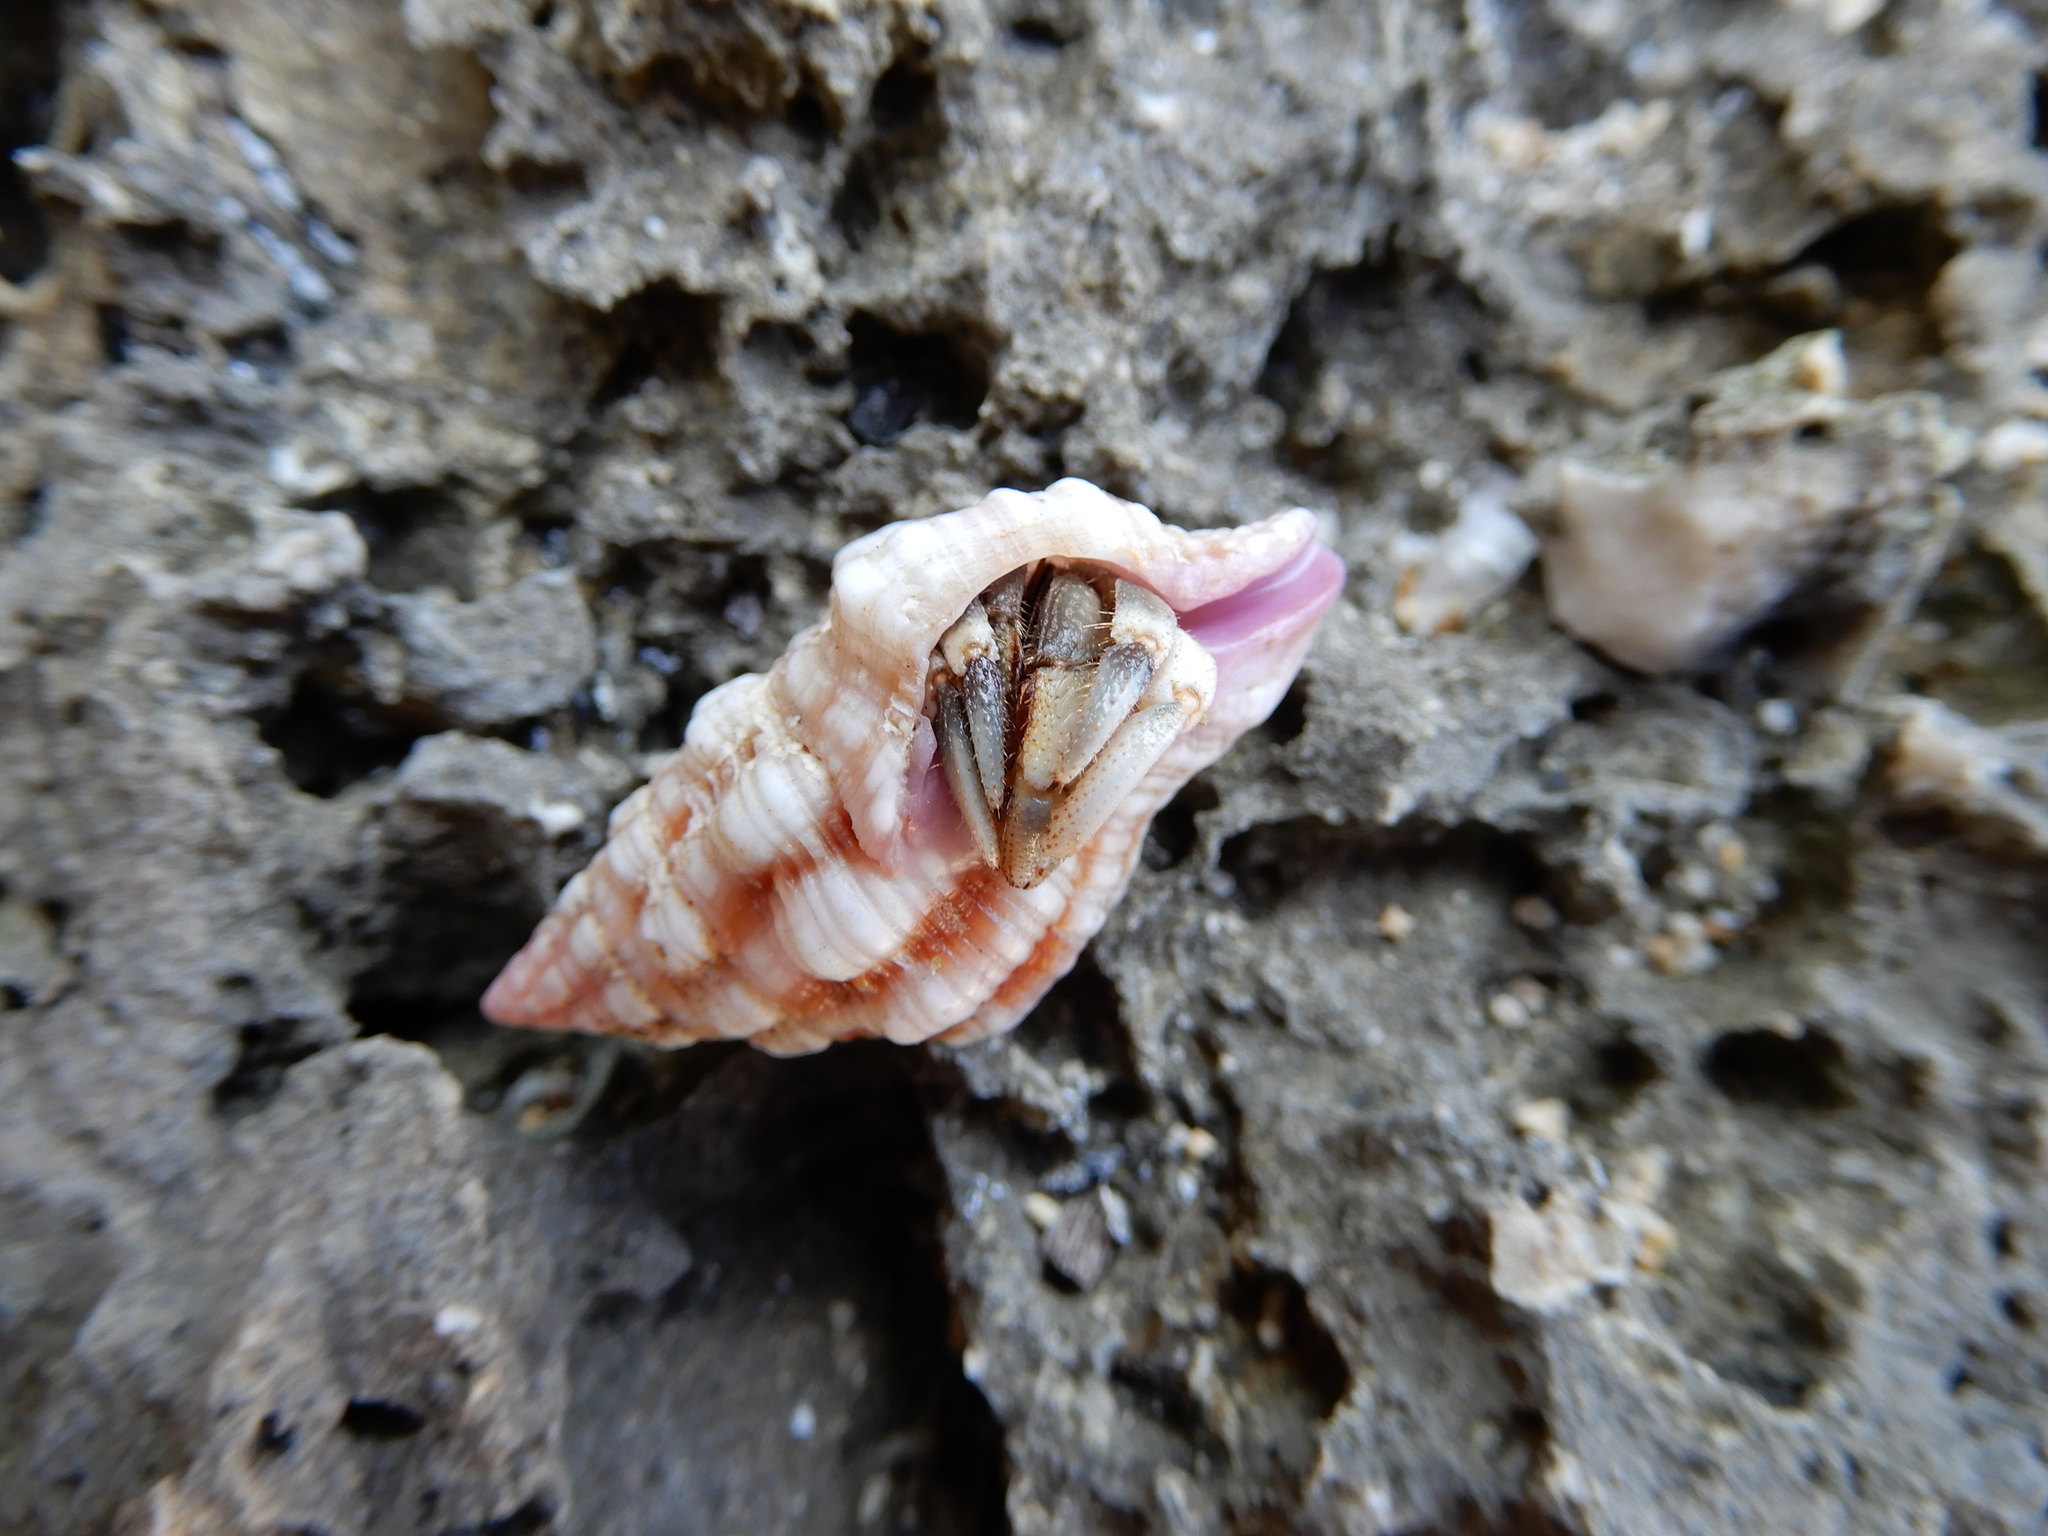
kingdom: Animalia
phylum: Arthropoda
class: Malacostraca
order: Decapoda
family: Coenobitidae
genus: Coenobita
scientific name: Coenobita rugosus
